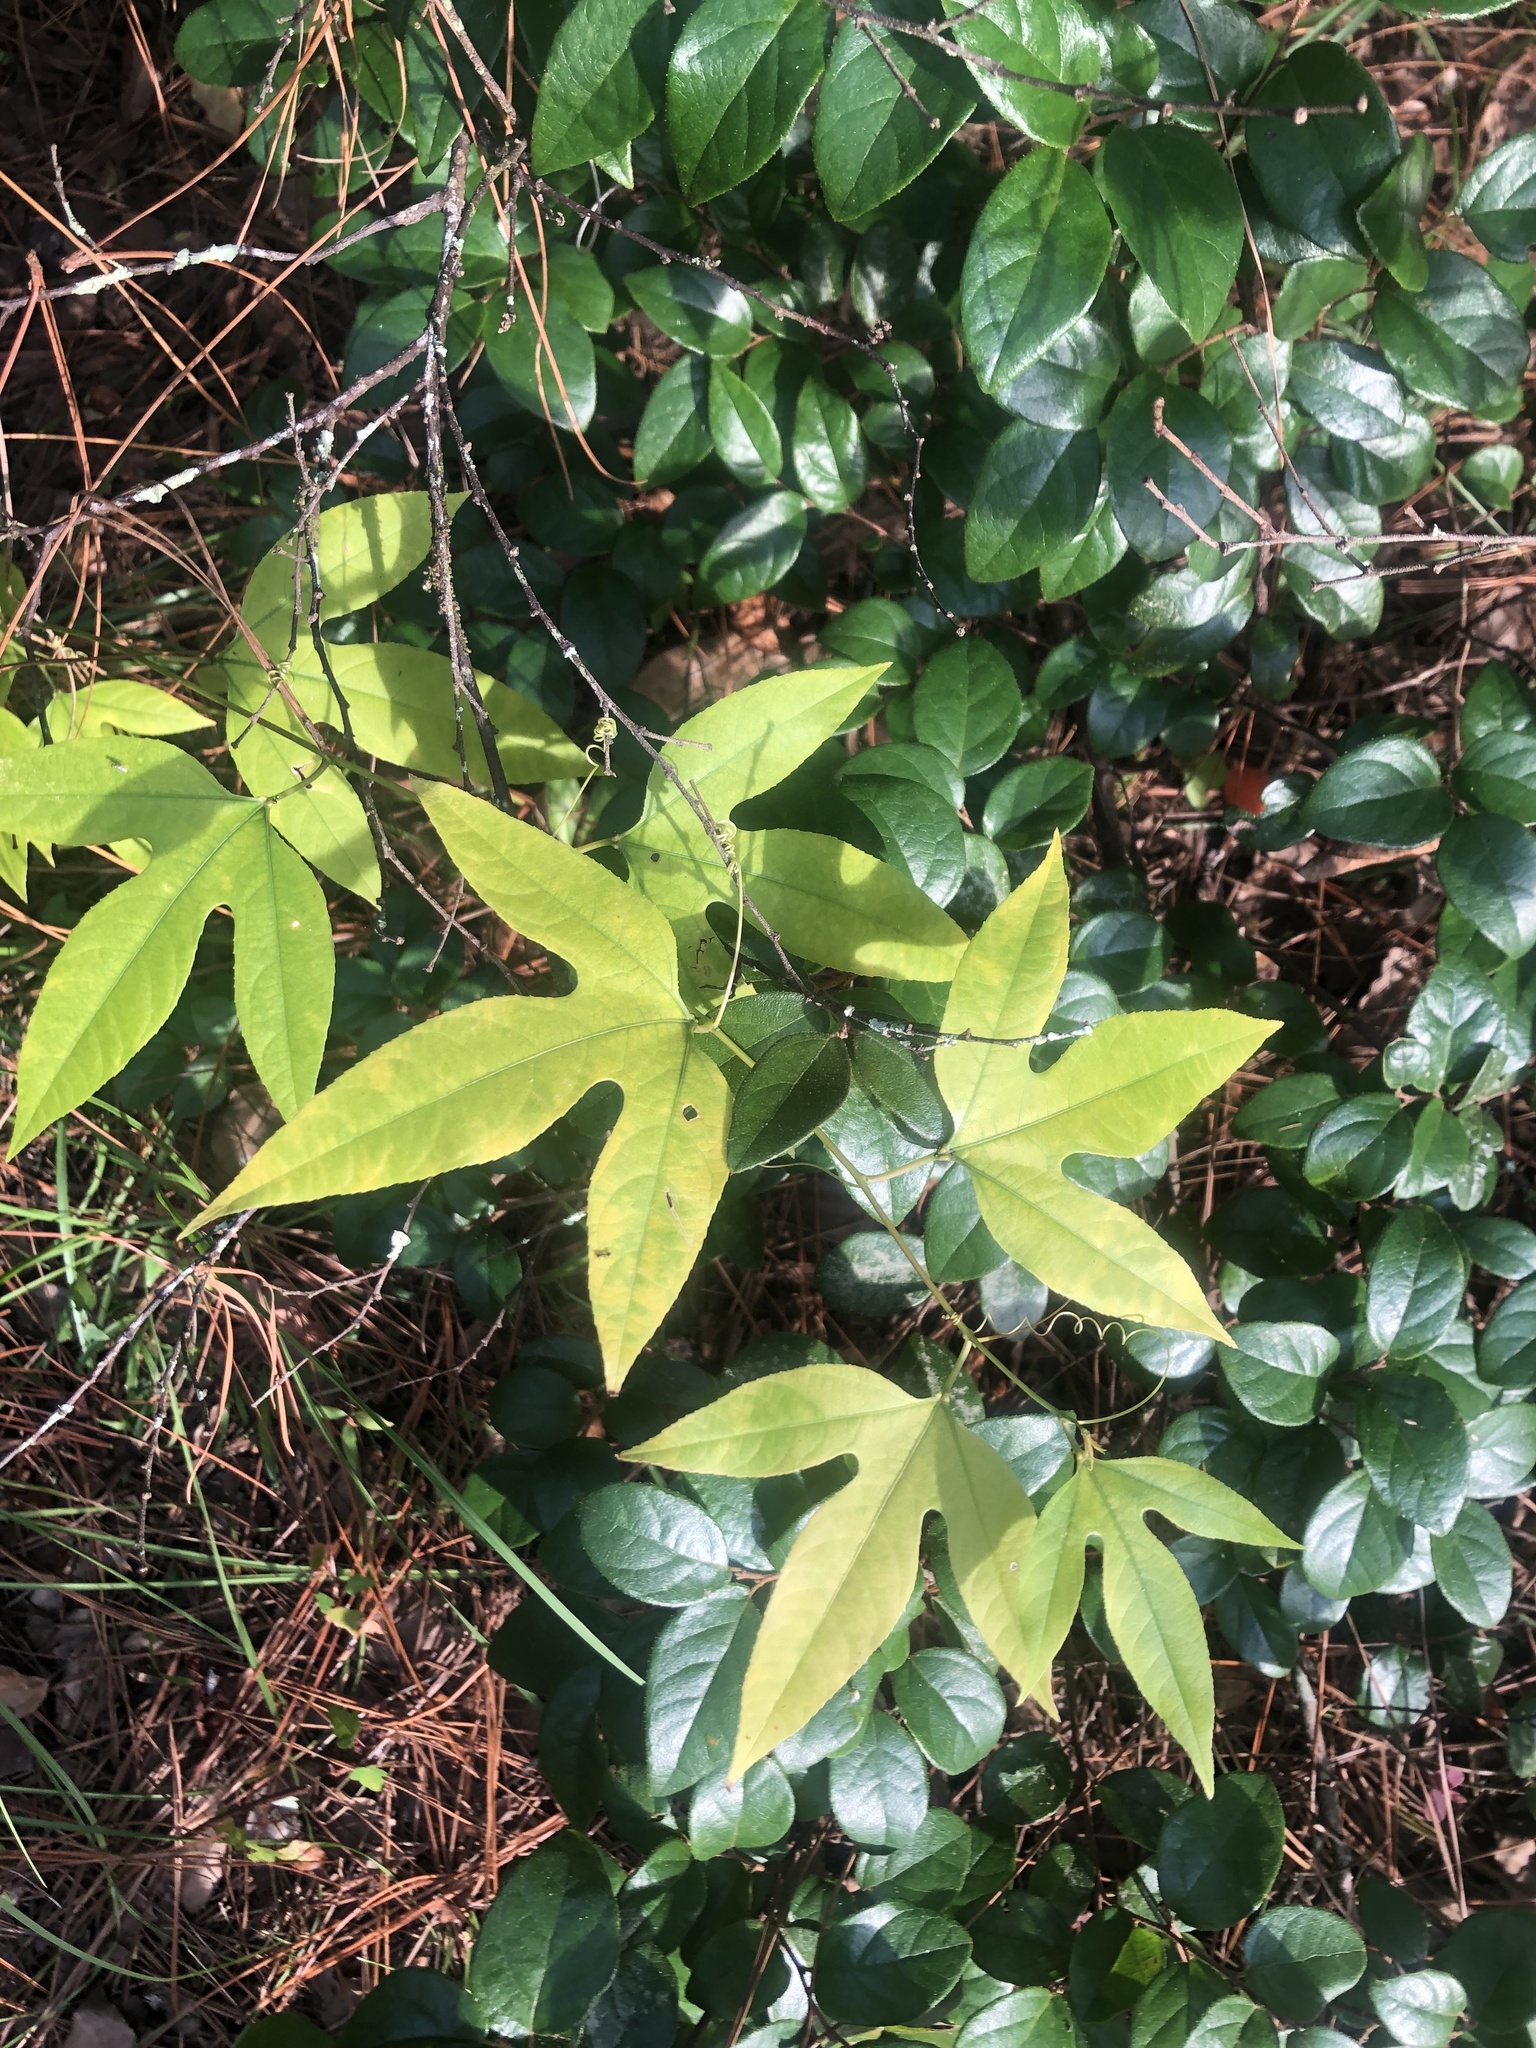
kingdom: Plantae
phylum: Tracheophyta
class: Magnoliopsida
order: Malpighiales
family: Passifloraceae
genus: Passiflora
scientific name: Passiflora incarnata
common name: Apricot-vine
